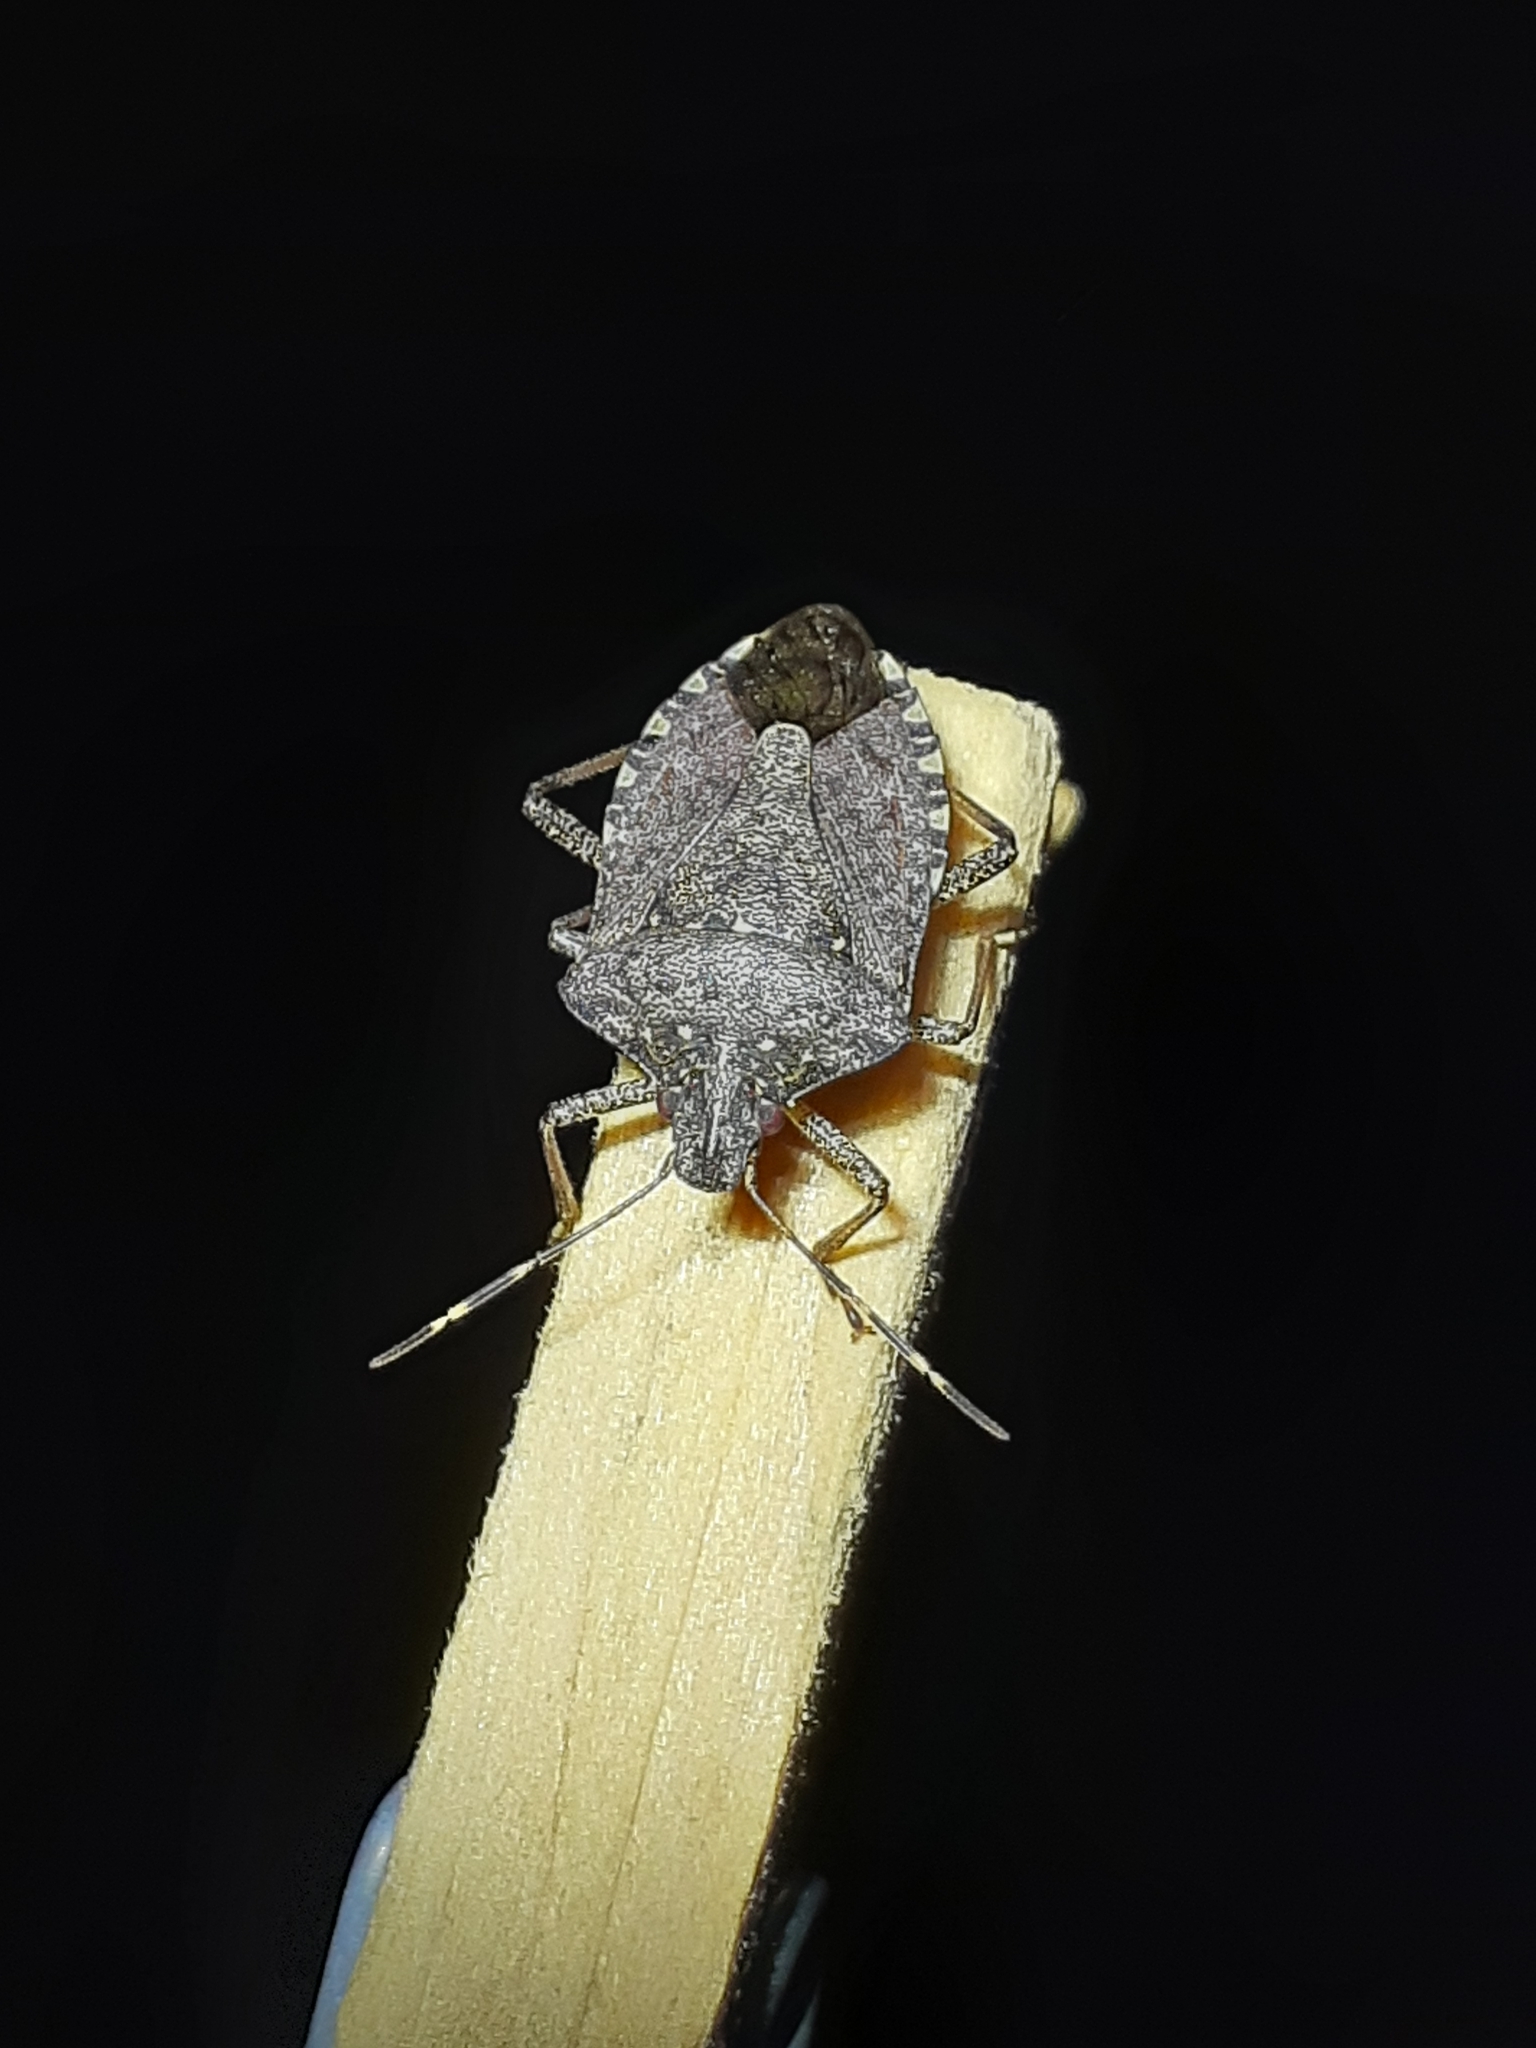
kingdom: Animalia
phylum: Arthropoda
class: Insecta
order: Hemiptera
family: Pentatomidae
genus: Halyomorpha
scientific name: Halyomorpha halys
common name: Brown marmorated stink bug
